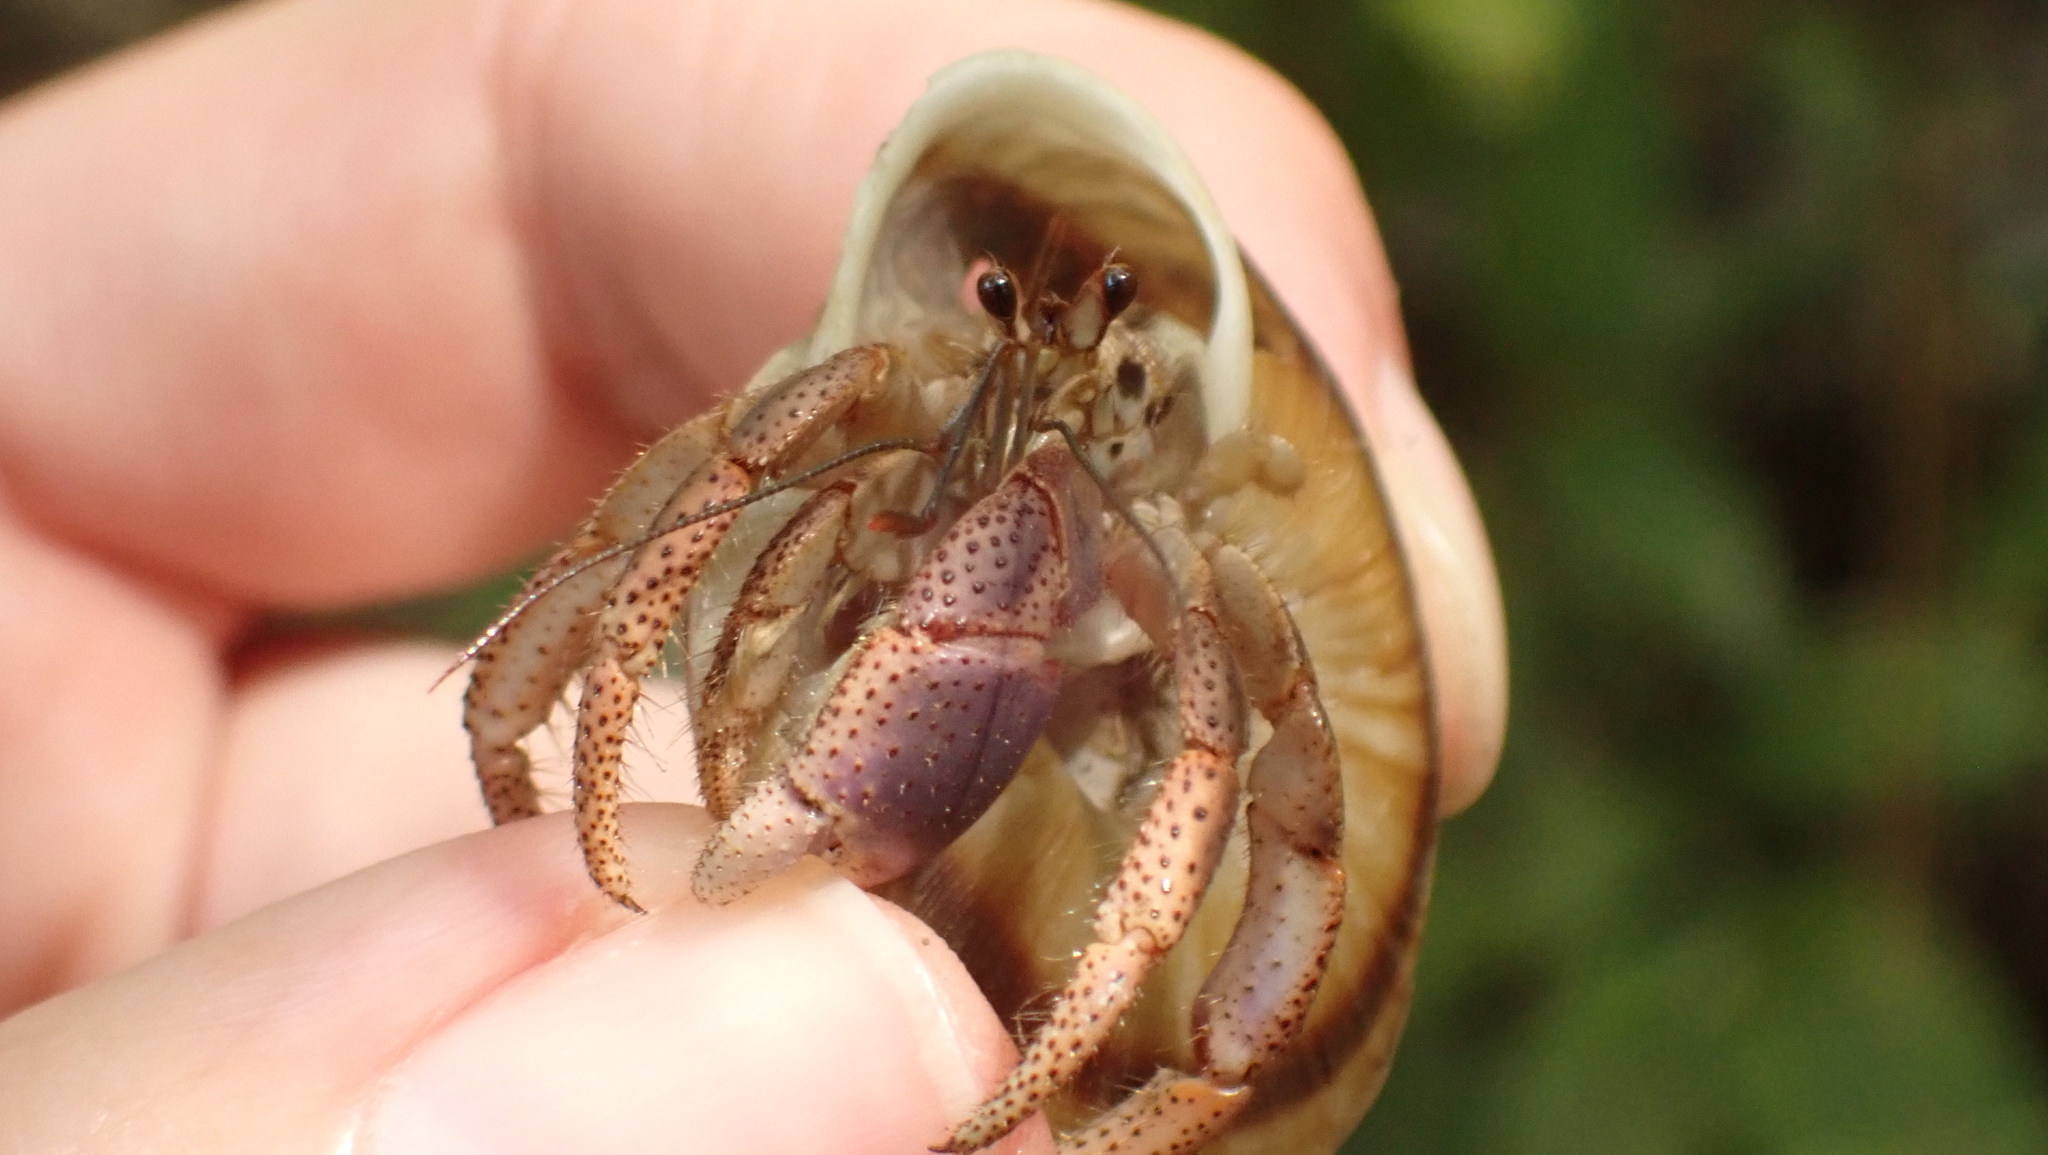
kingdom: Animalia
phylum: Arthropoda
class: Malacostraca
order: Decapoda
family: Coenobitidae
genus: Coenobita
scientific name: Coenobita clypeatus
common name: Caribbean hermit crab
